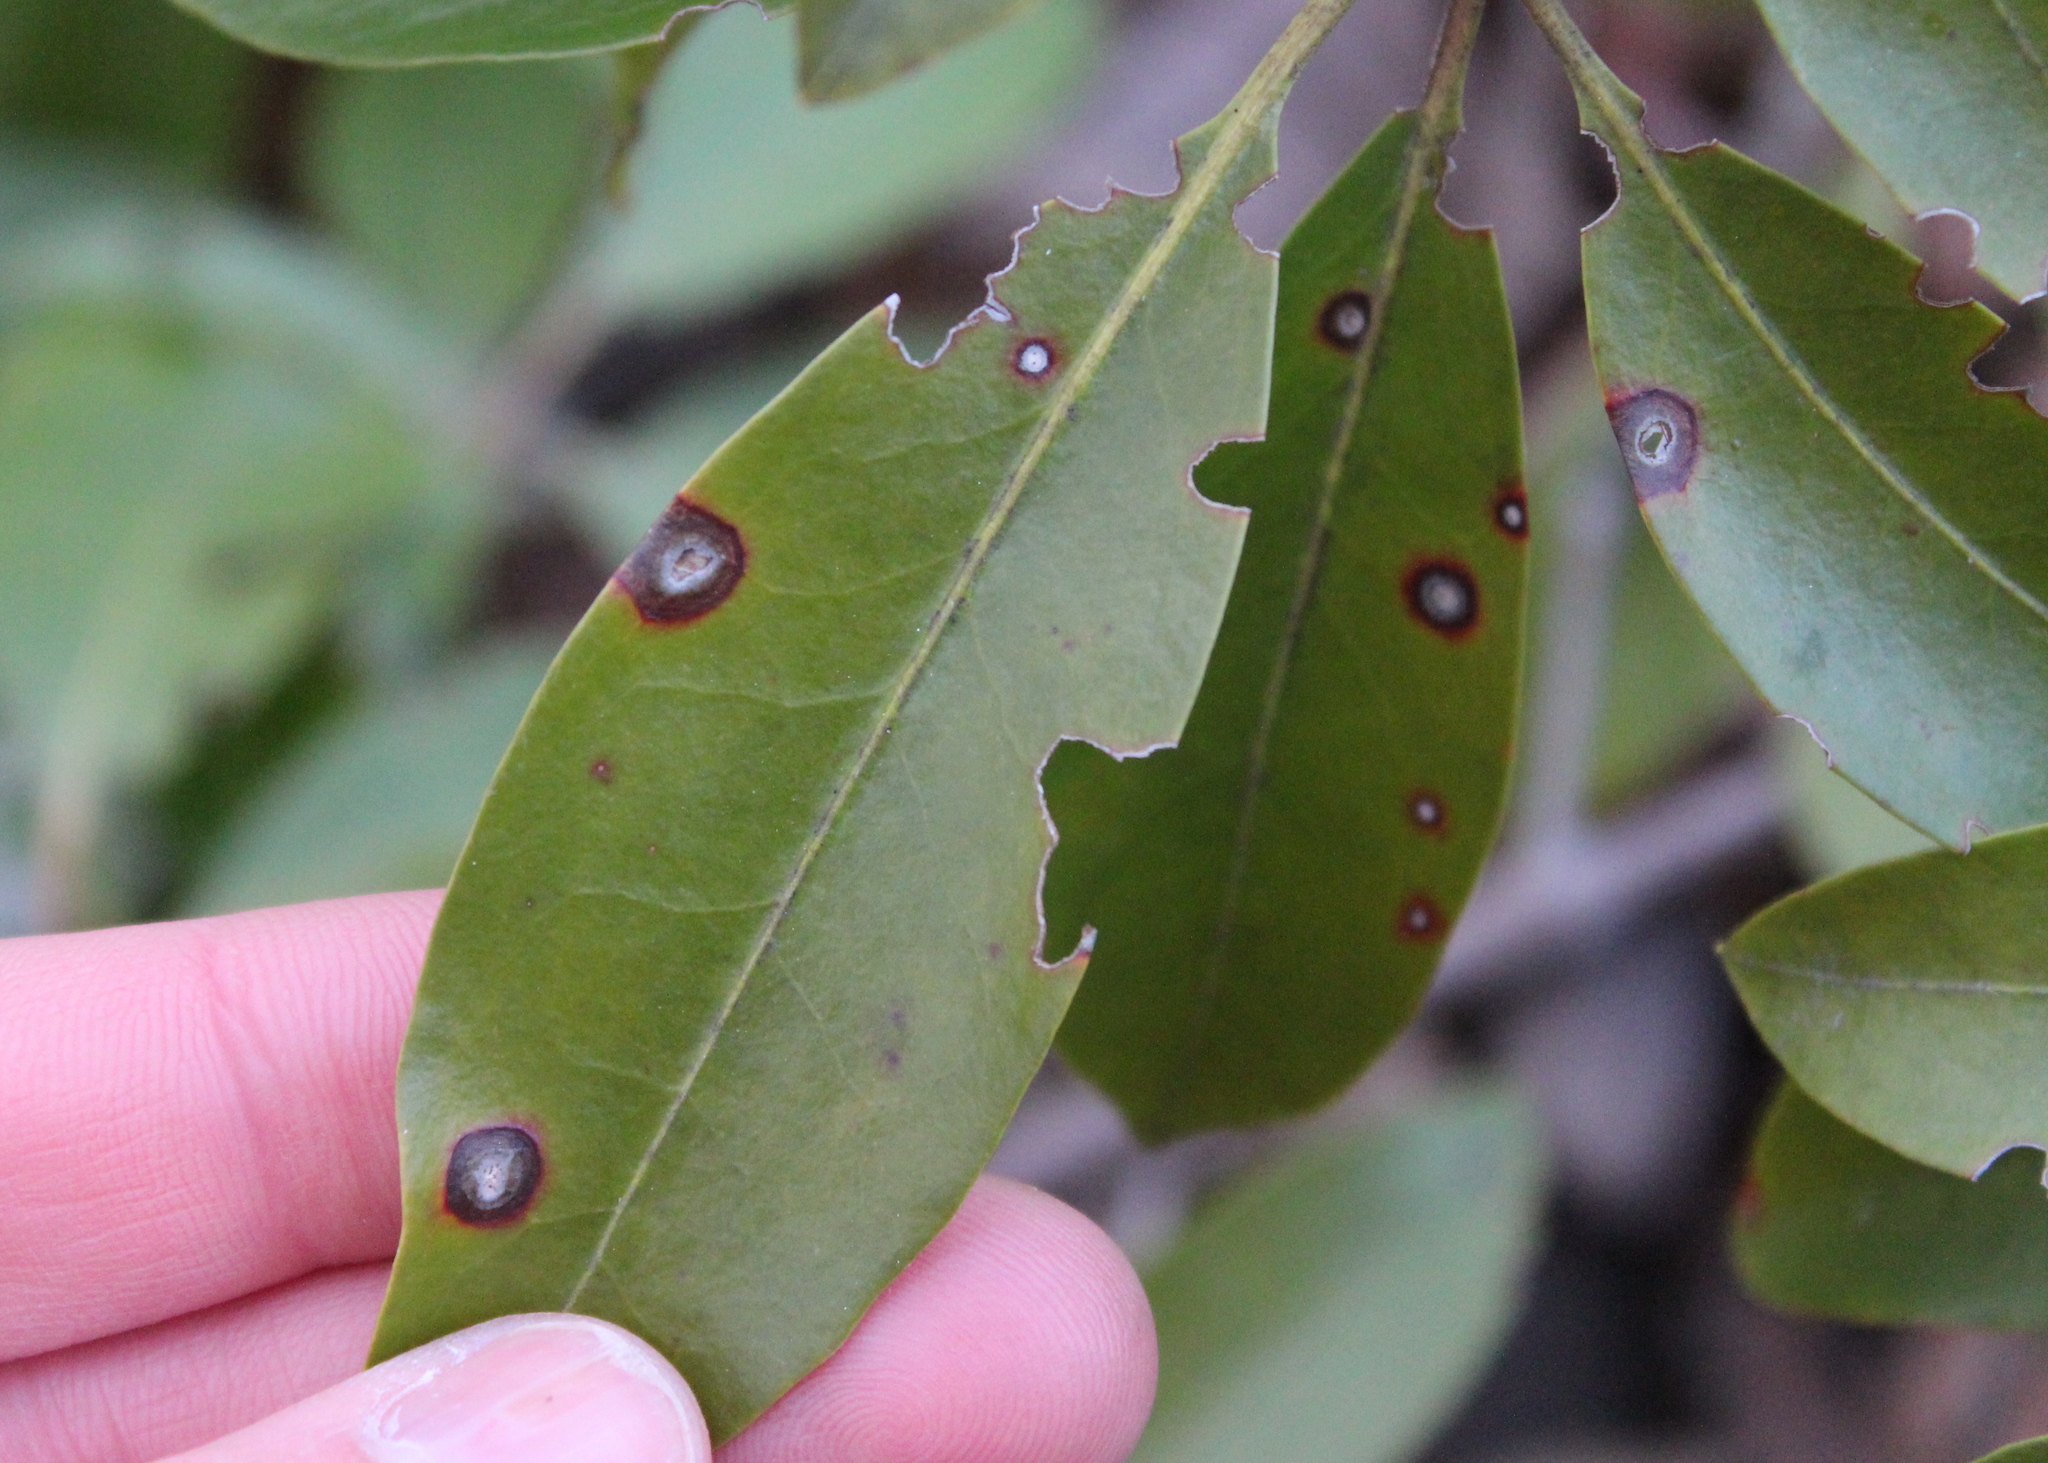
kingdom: Fungi
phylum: Ascomycota
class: Dothideomycetes
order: Mycosphaerellales
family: Mycosphaerellaceae
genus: Mycosphaerella
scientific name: Mycosphaerella colorata
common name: Mountain laurel leaf spot
